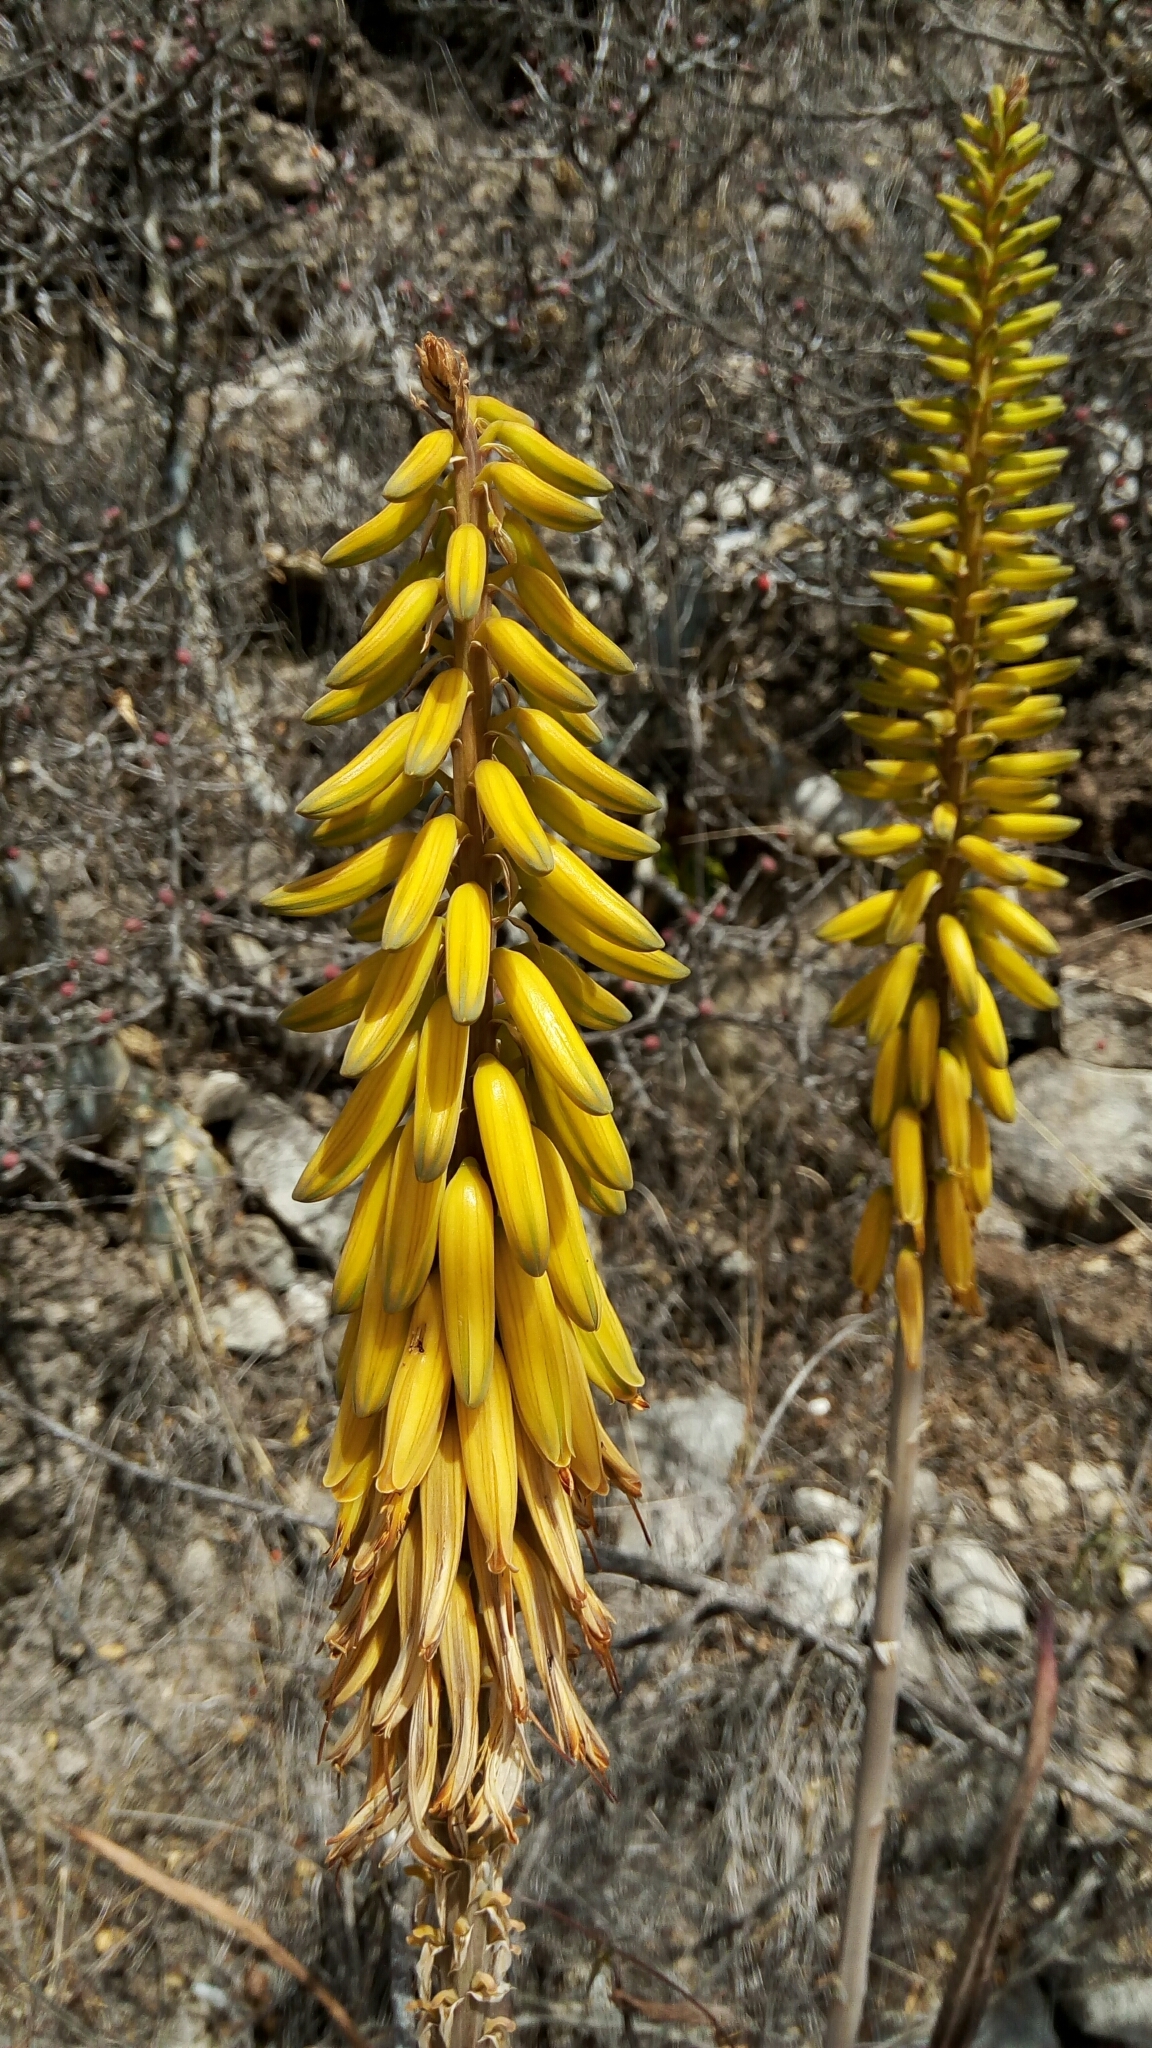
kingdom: Plantae
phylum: Tracheophyta
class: Liliopsida
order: Asparagales
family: Asphodelaceae
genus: Aloe
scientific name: Aloe vera
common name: Barbados aloe
